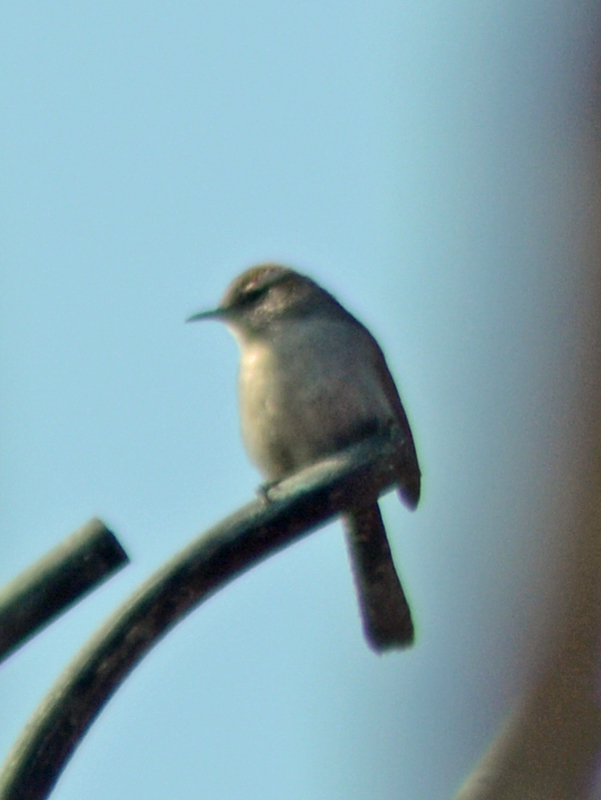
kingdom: Animalia
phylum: Chordata
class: Aves
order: Passeriformes
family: Troglodytidae
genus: Thryomanes
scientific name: Thryomanes bewickii
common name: Bewick's wren
